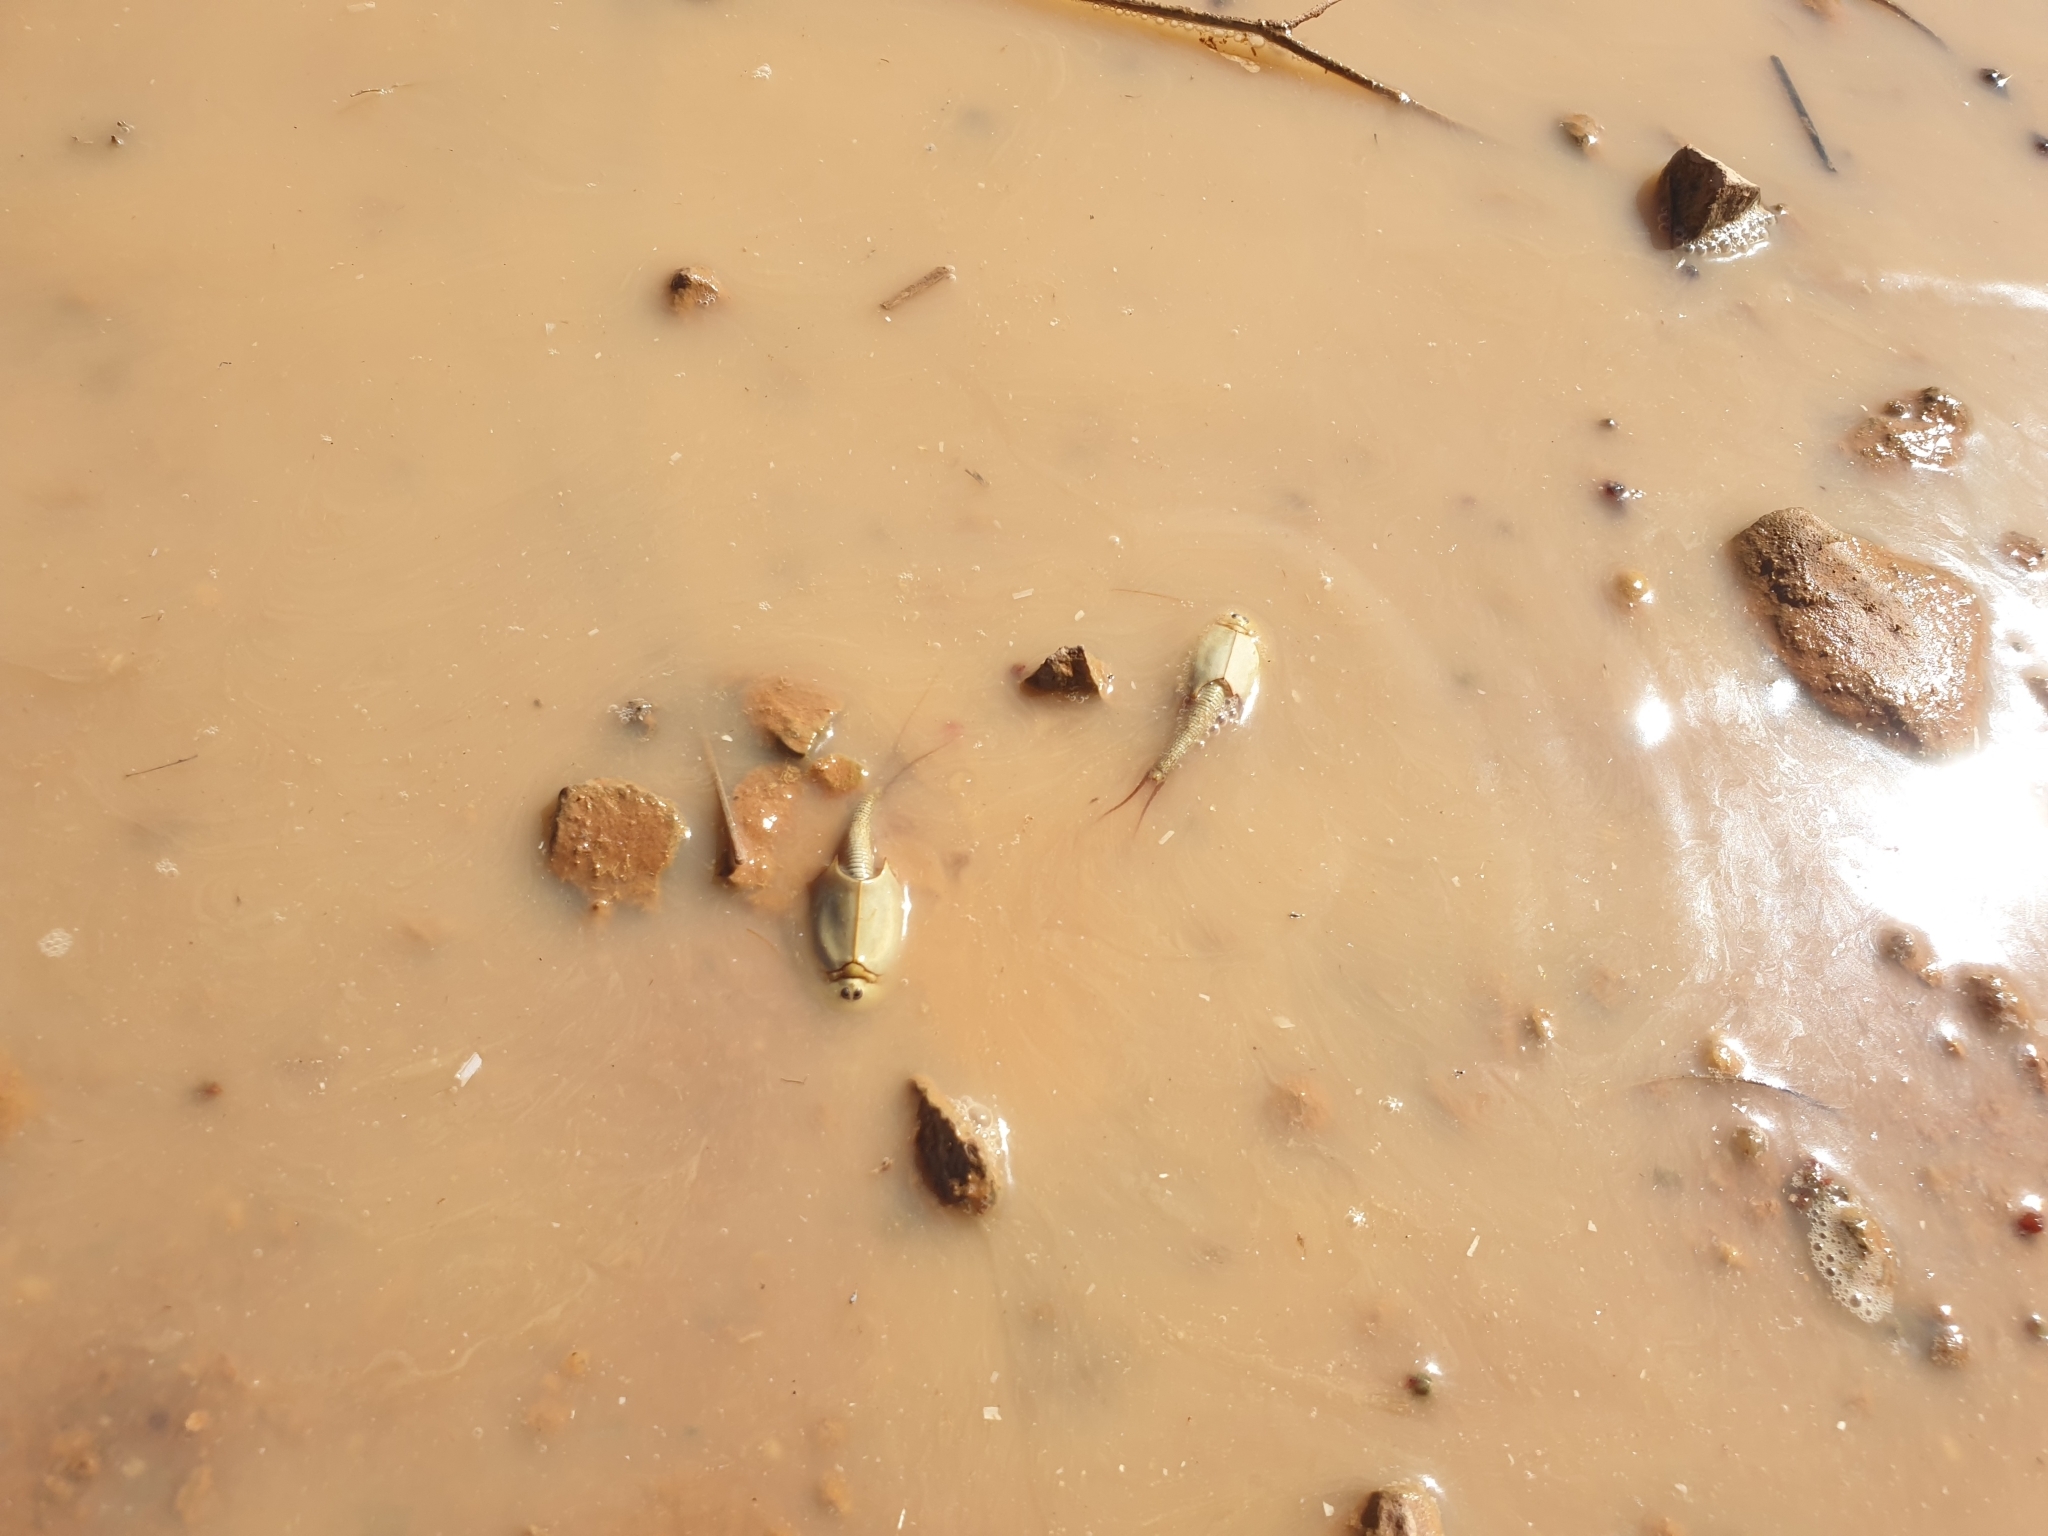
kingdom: Animalia
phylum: Arthropoda
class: Branchiopoda
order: Notostraca
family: Triopsidae
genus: Triops
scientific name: Triops australiensis
